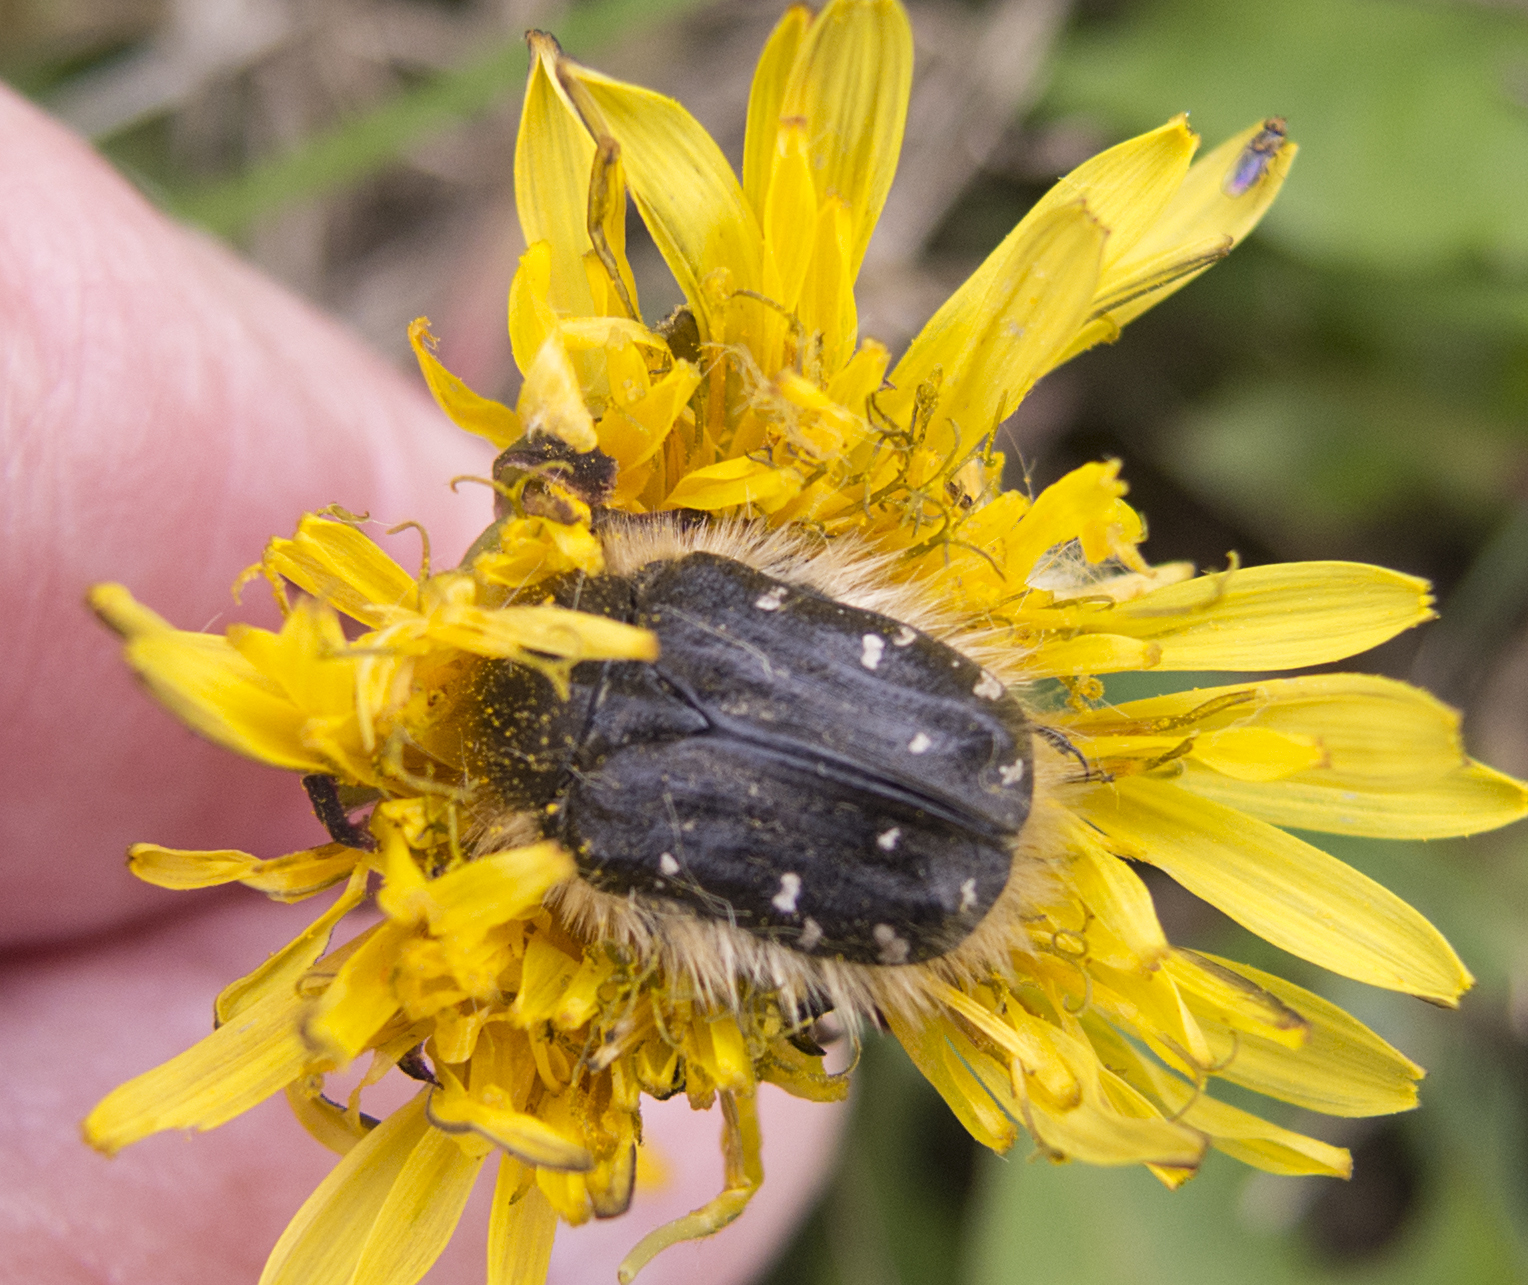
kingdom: Animalia
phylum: Arthropoda
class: Insecta
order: Coleoptera
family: Scarabaeidae
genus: Tropinota
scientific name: Tropinota hirta
